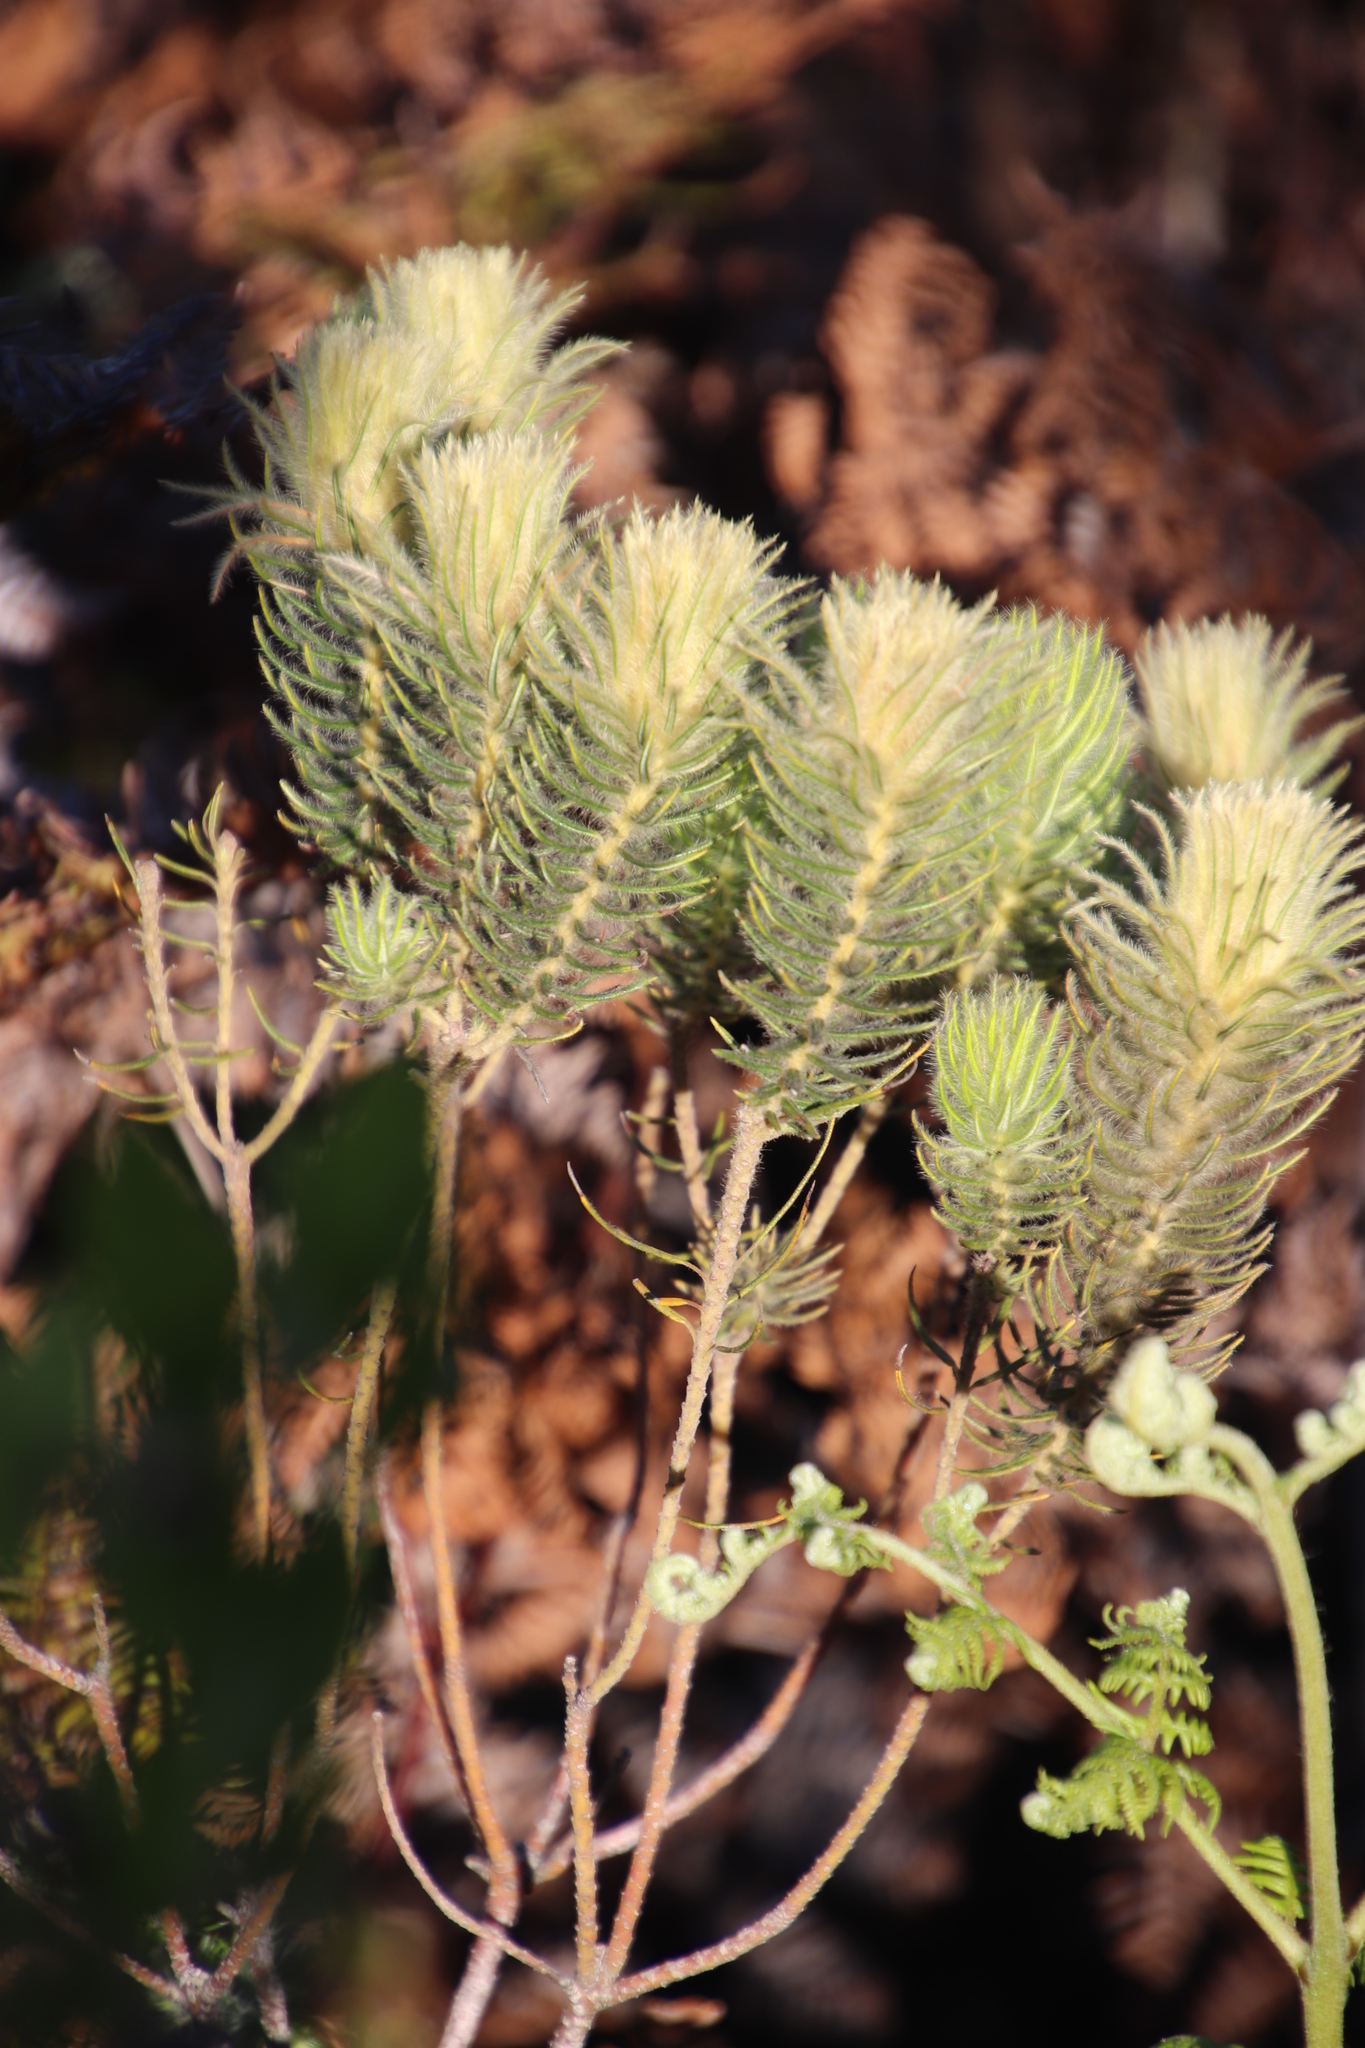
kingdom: Plantae
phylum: Tracheophyta
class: Magnoliopsida
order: Rosales
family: Rhamnaceae
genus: Phylica
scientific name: Phylica pubescens
